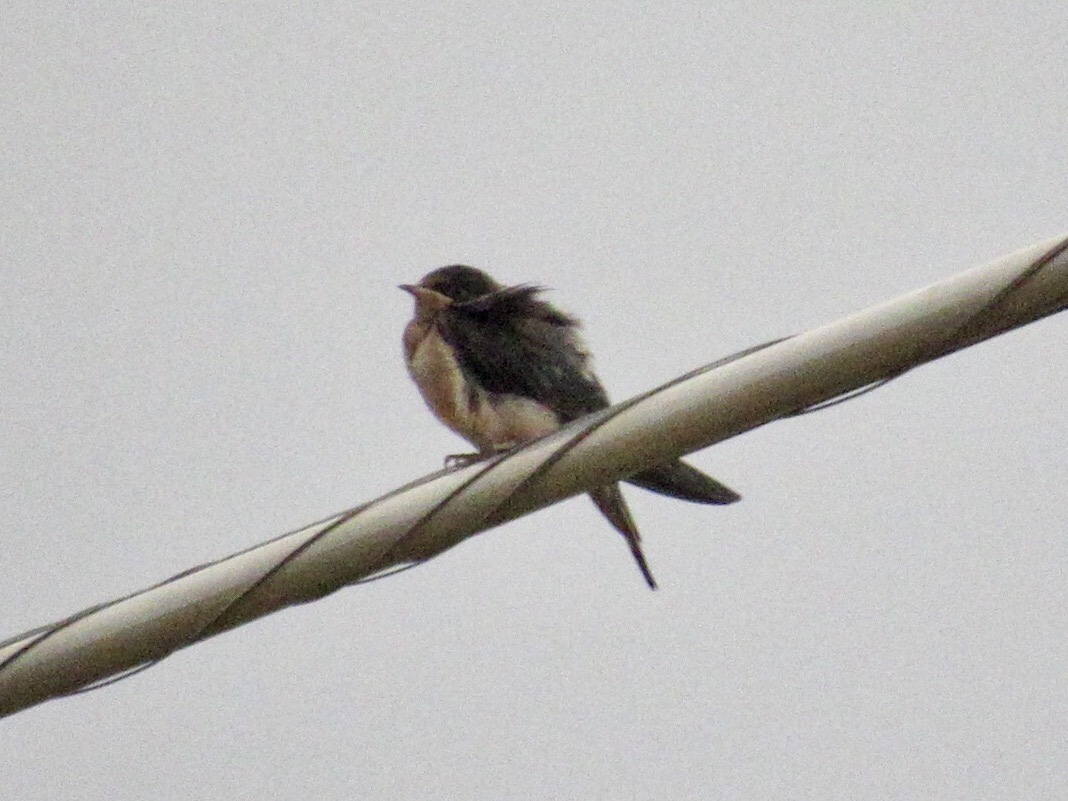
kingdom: Animalia
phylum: Chordata
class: Aves
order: Passeriformes
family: Hirundinidae
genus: Hirundo
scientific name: Hirundo rustica
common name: Barn swallow
